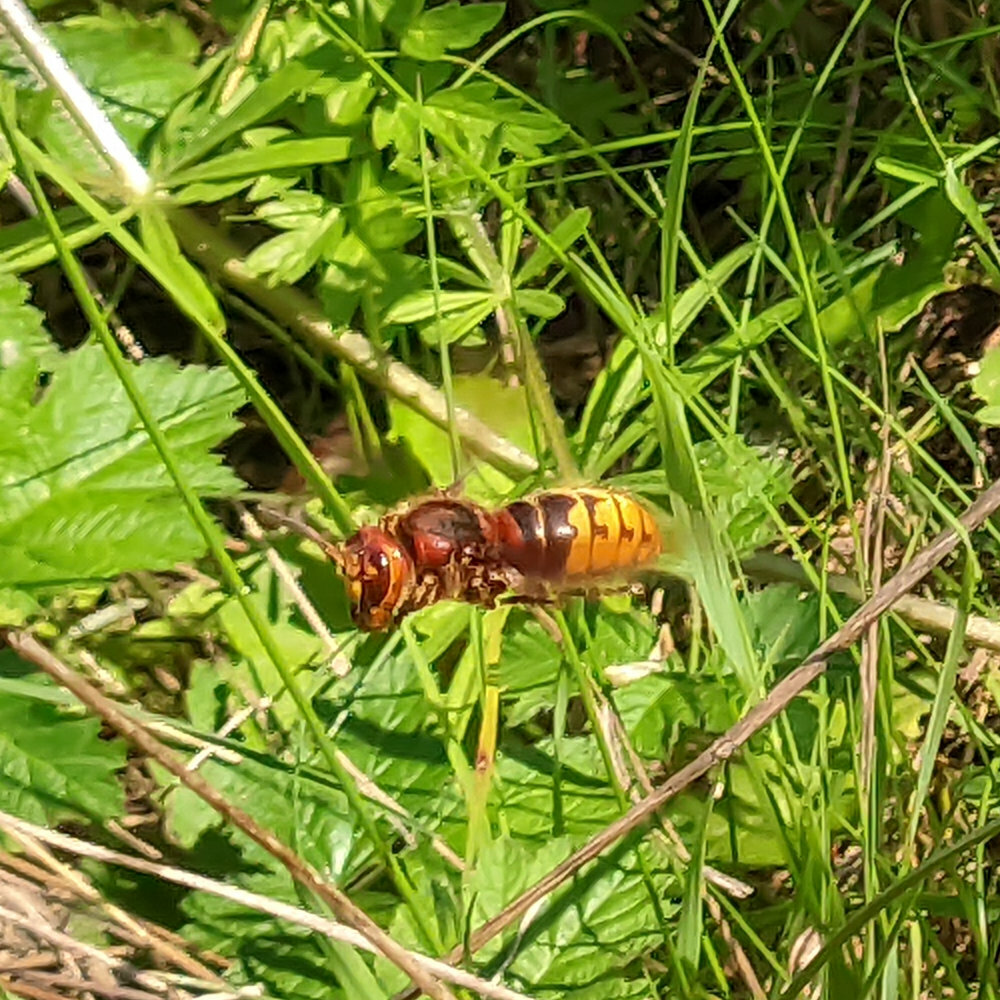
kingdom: Animalia
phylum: Arthropoda
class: Insecta
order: Hymenoptera
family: Vespidae
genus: Vespa
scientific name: Vespa crabro
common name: Hornet
